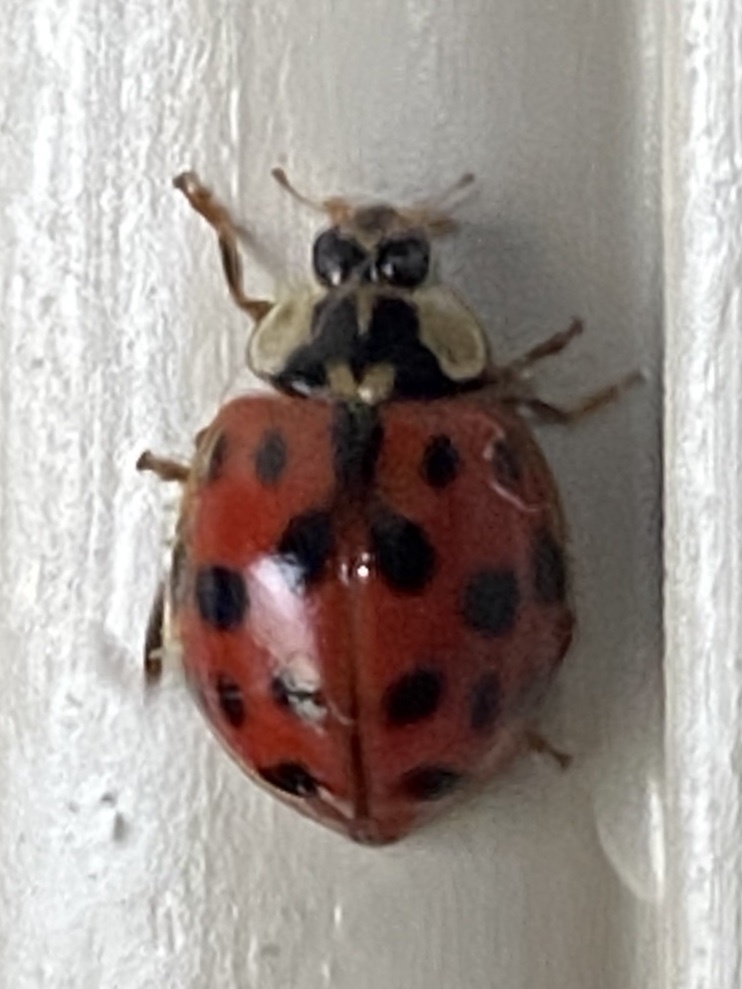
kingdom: Animalia
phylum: Arthropoda
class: Insecta
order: Coleoptera
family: Coccinellidae
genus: Harmonia
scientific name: Harmonia axyridis
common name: Harlequin ladybird
